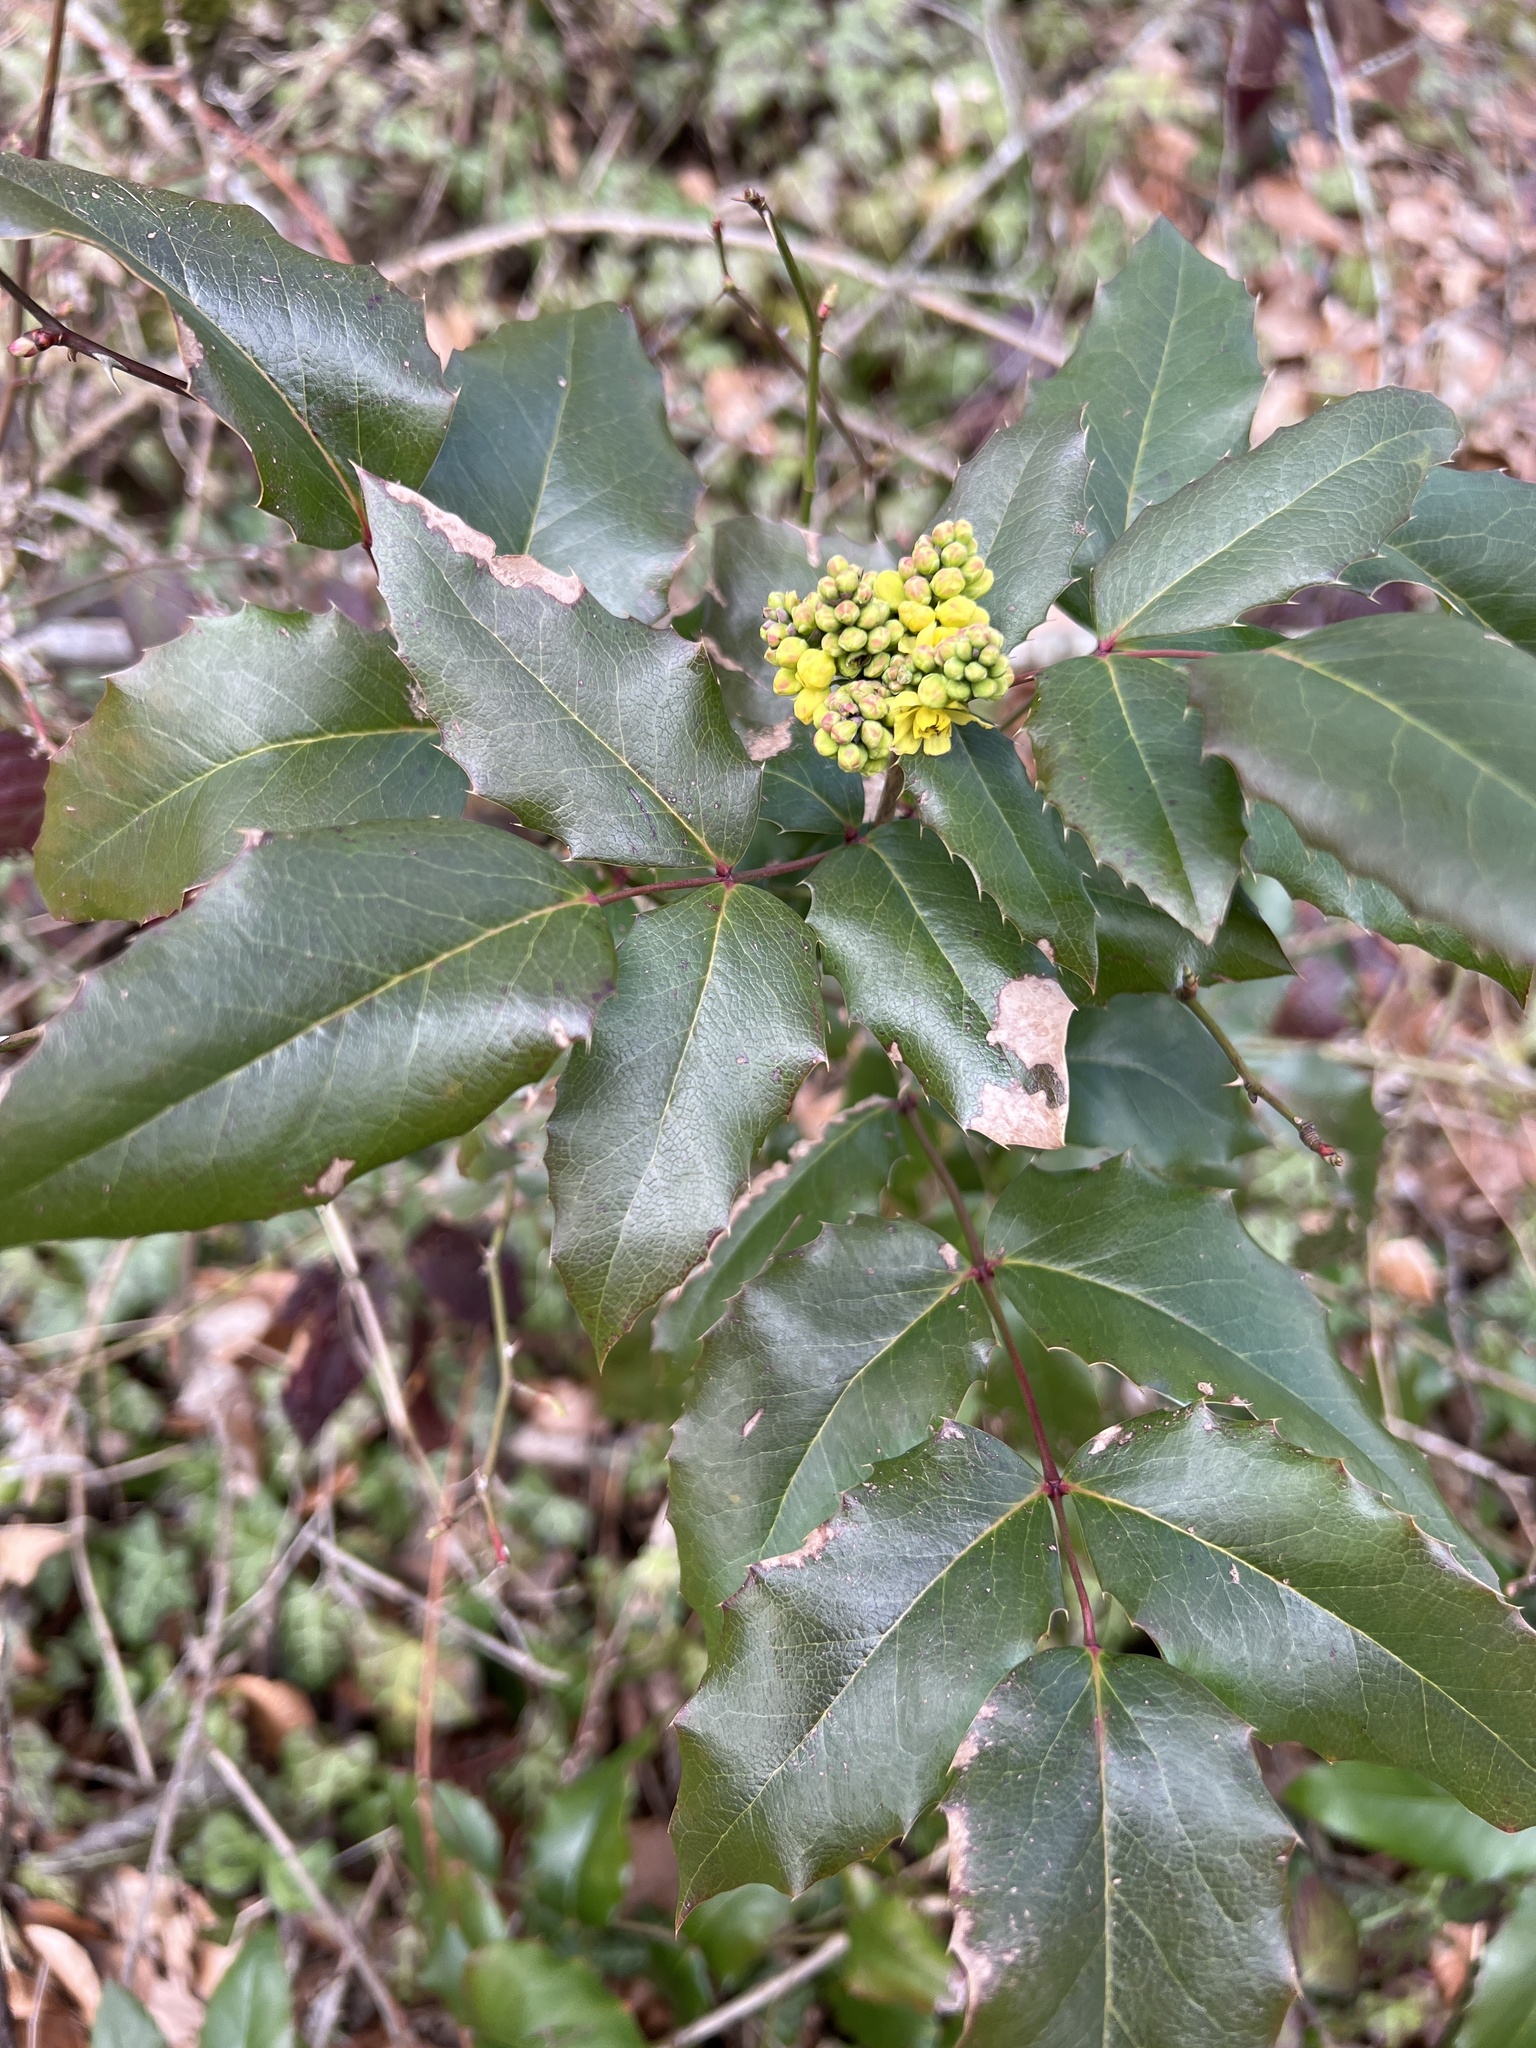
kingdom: Plantae
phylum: Tracheophyta
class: Magnoliopsida
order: Ranunculales
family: Berberidaceae
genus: Mahonia
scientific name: Mahonia aquifolium
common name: Oregon-grape
